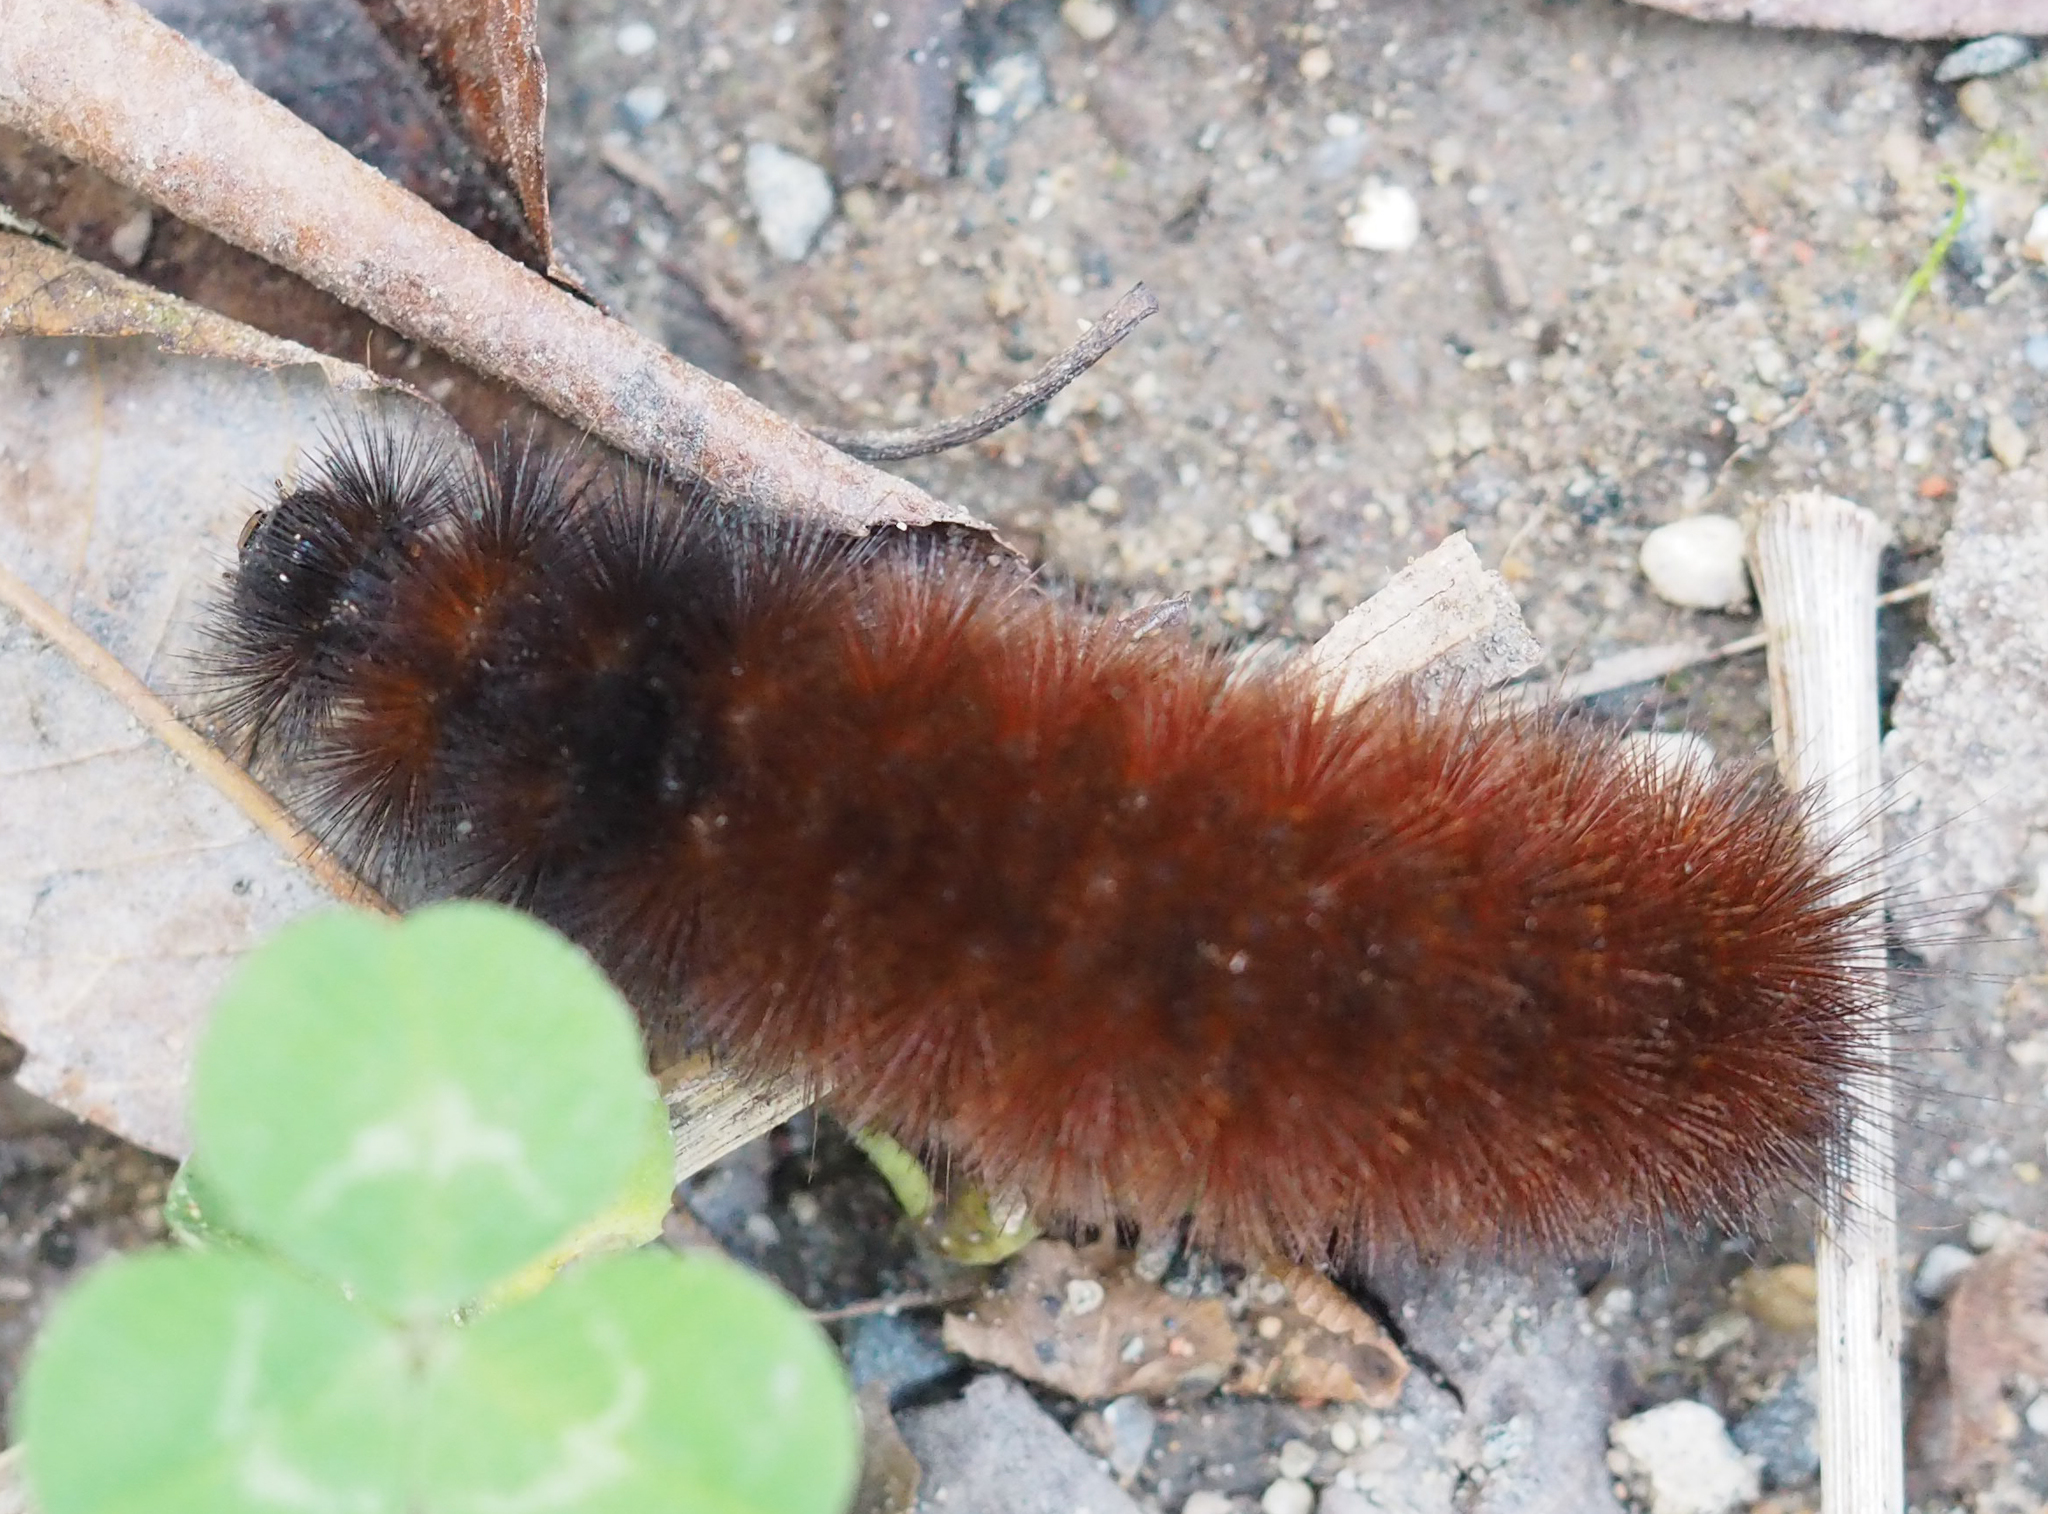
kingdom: Animalia
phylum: Arthropoda
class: Insecta
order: Lepidoptera
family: Erebidae
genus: Pyrrharctia
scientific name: Pyrrharctia isabella
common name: Isabella tiger moth
